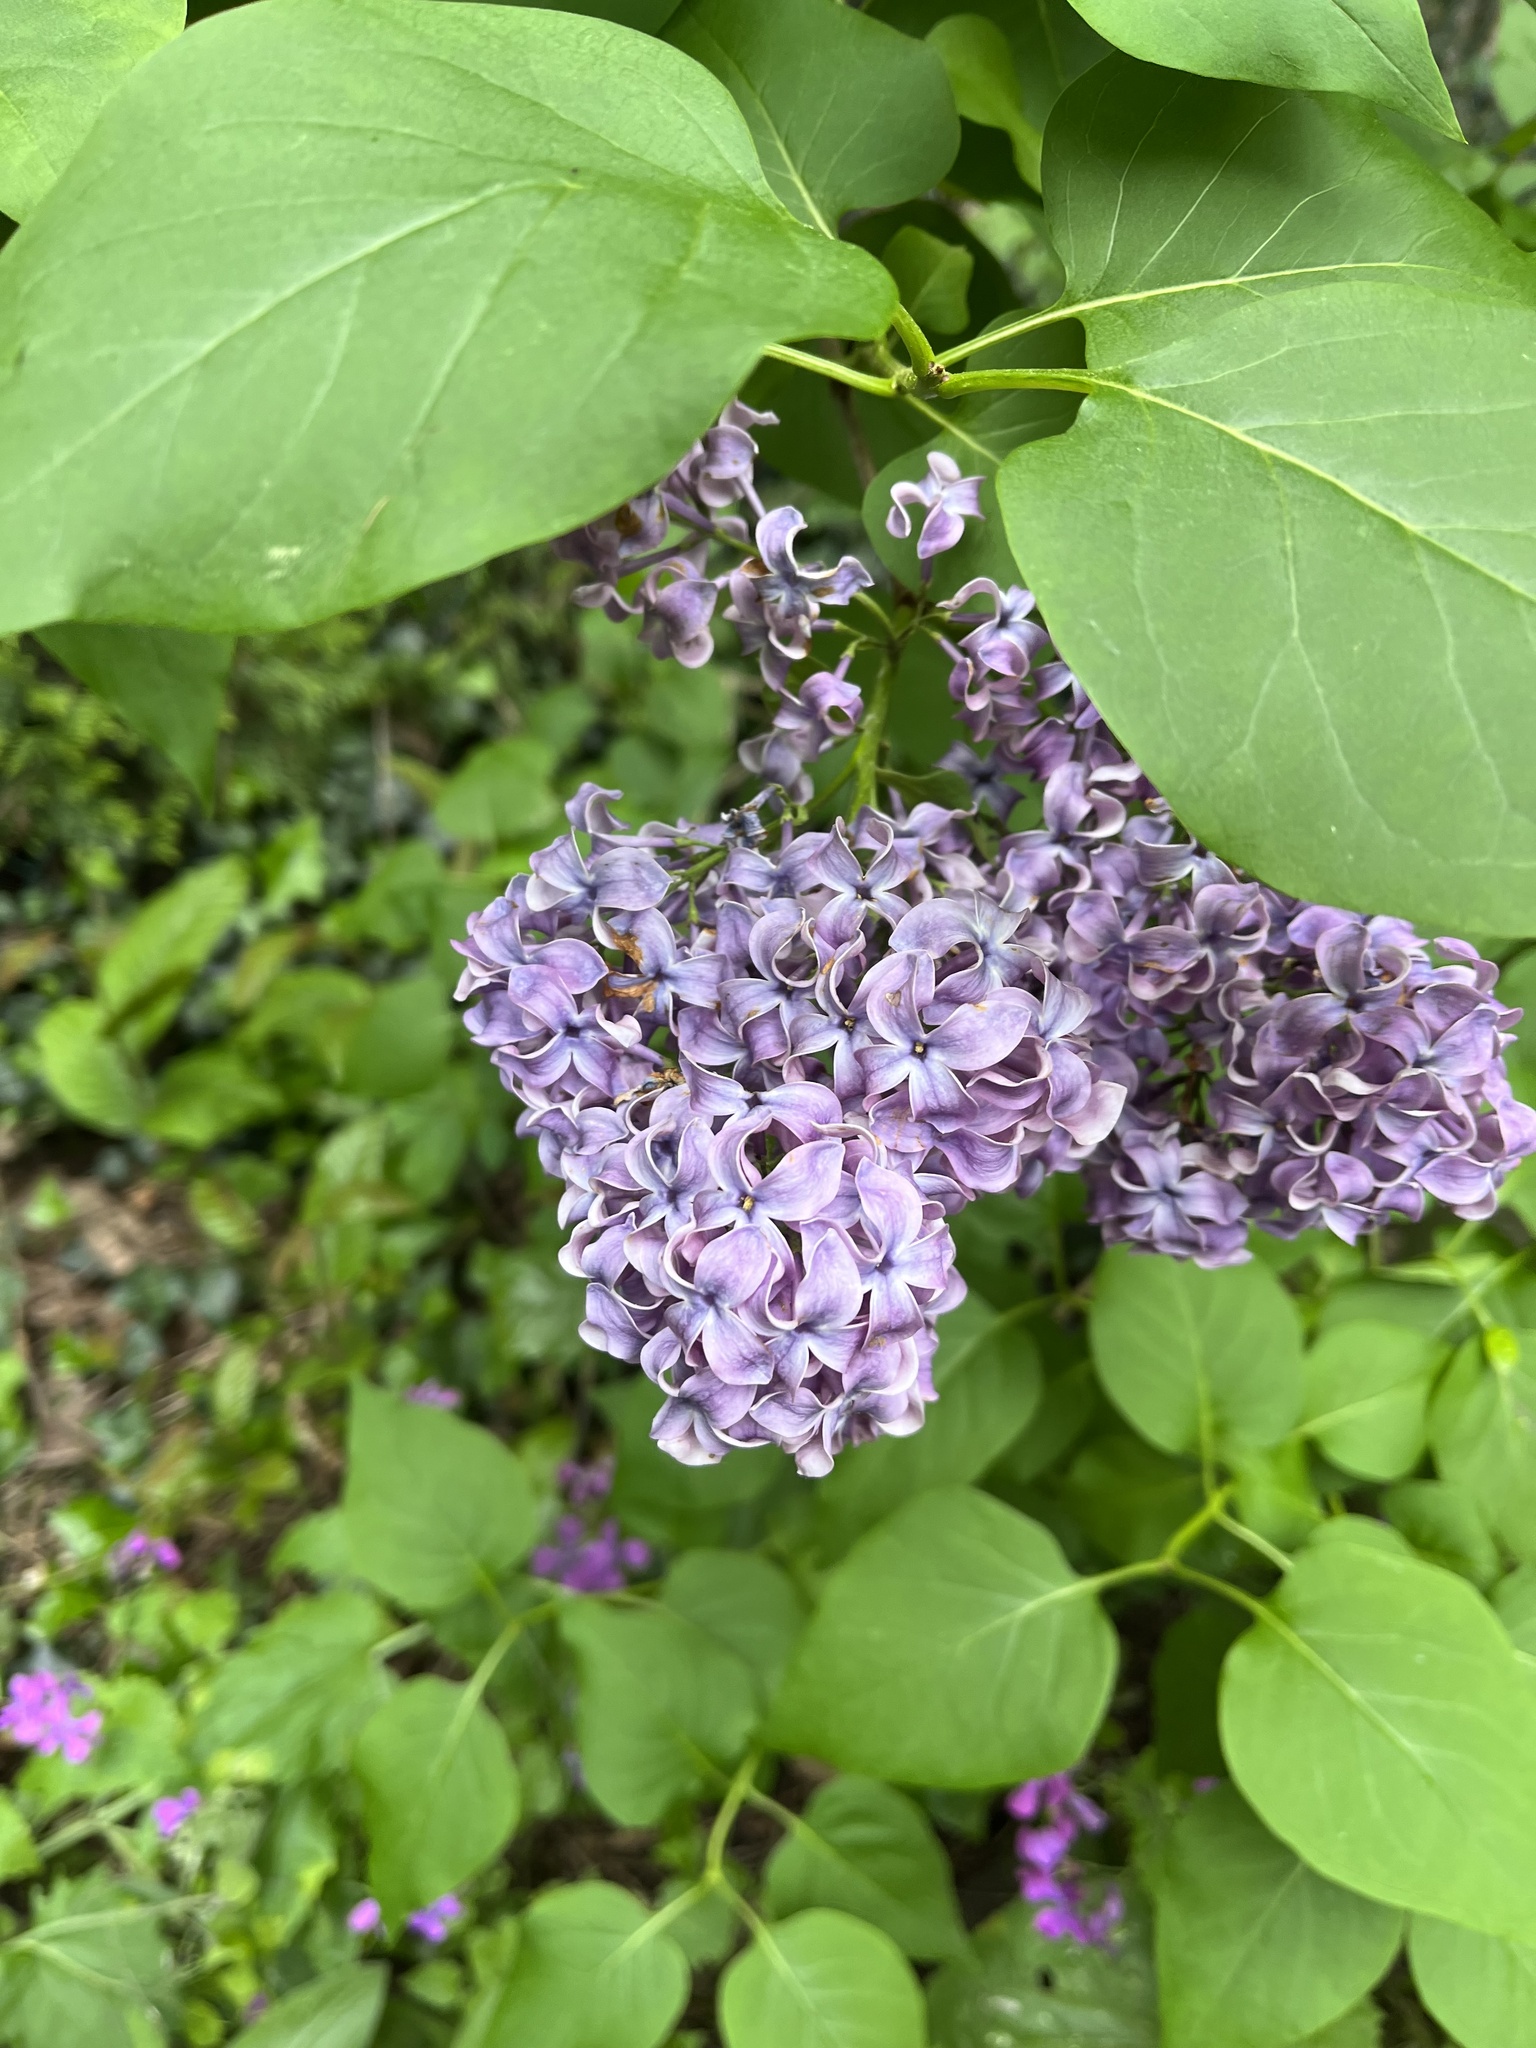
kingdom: Plantae
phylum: Tracheophyta
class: Magnoliopsida
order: Lamiales
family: Oleaceae
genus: Syringa
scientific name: Syringa vulgaris
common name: Common lilac
